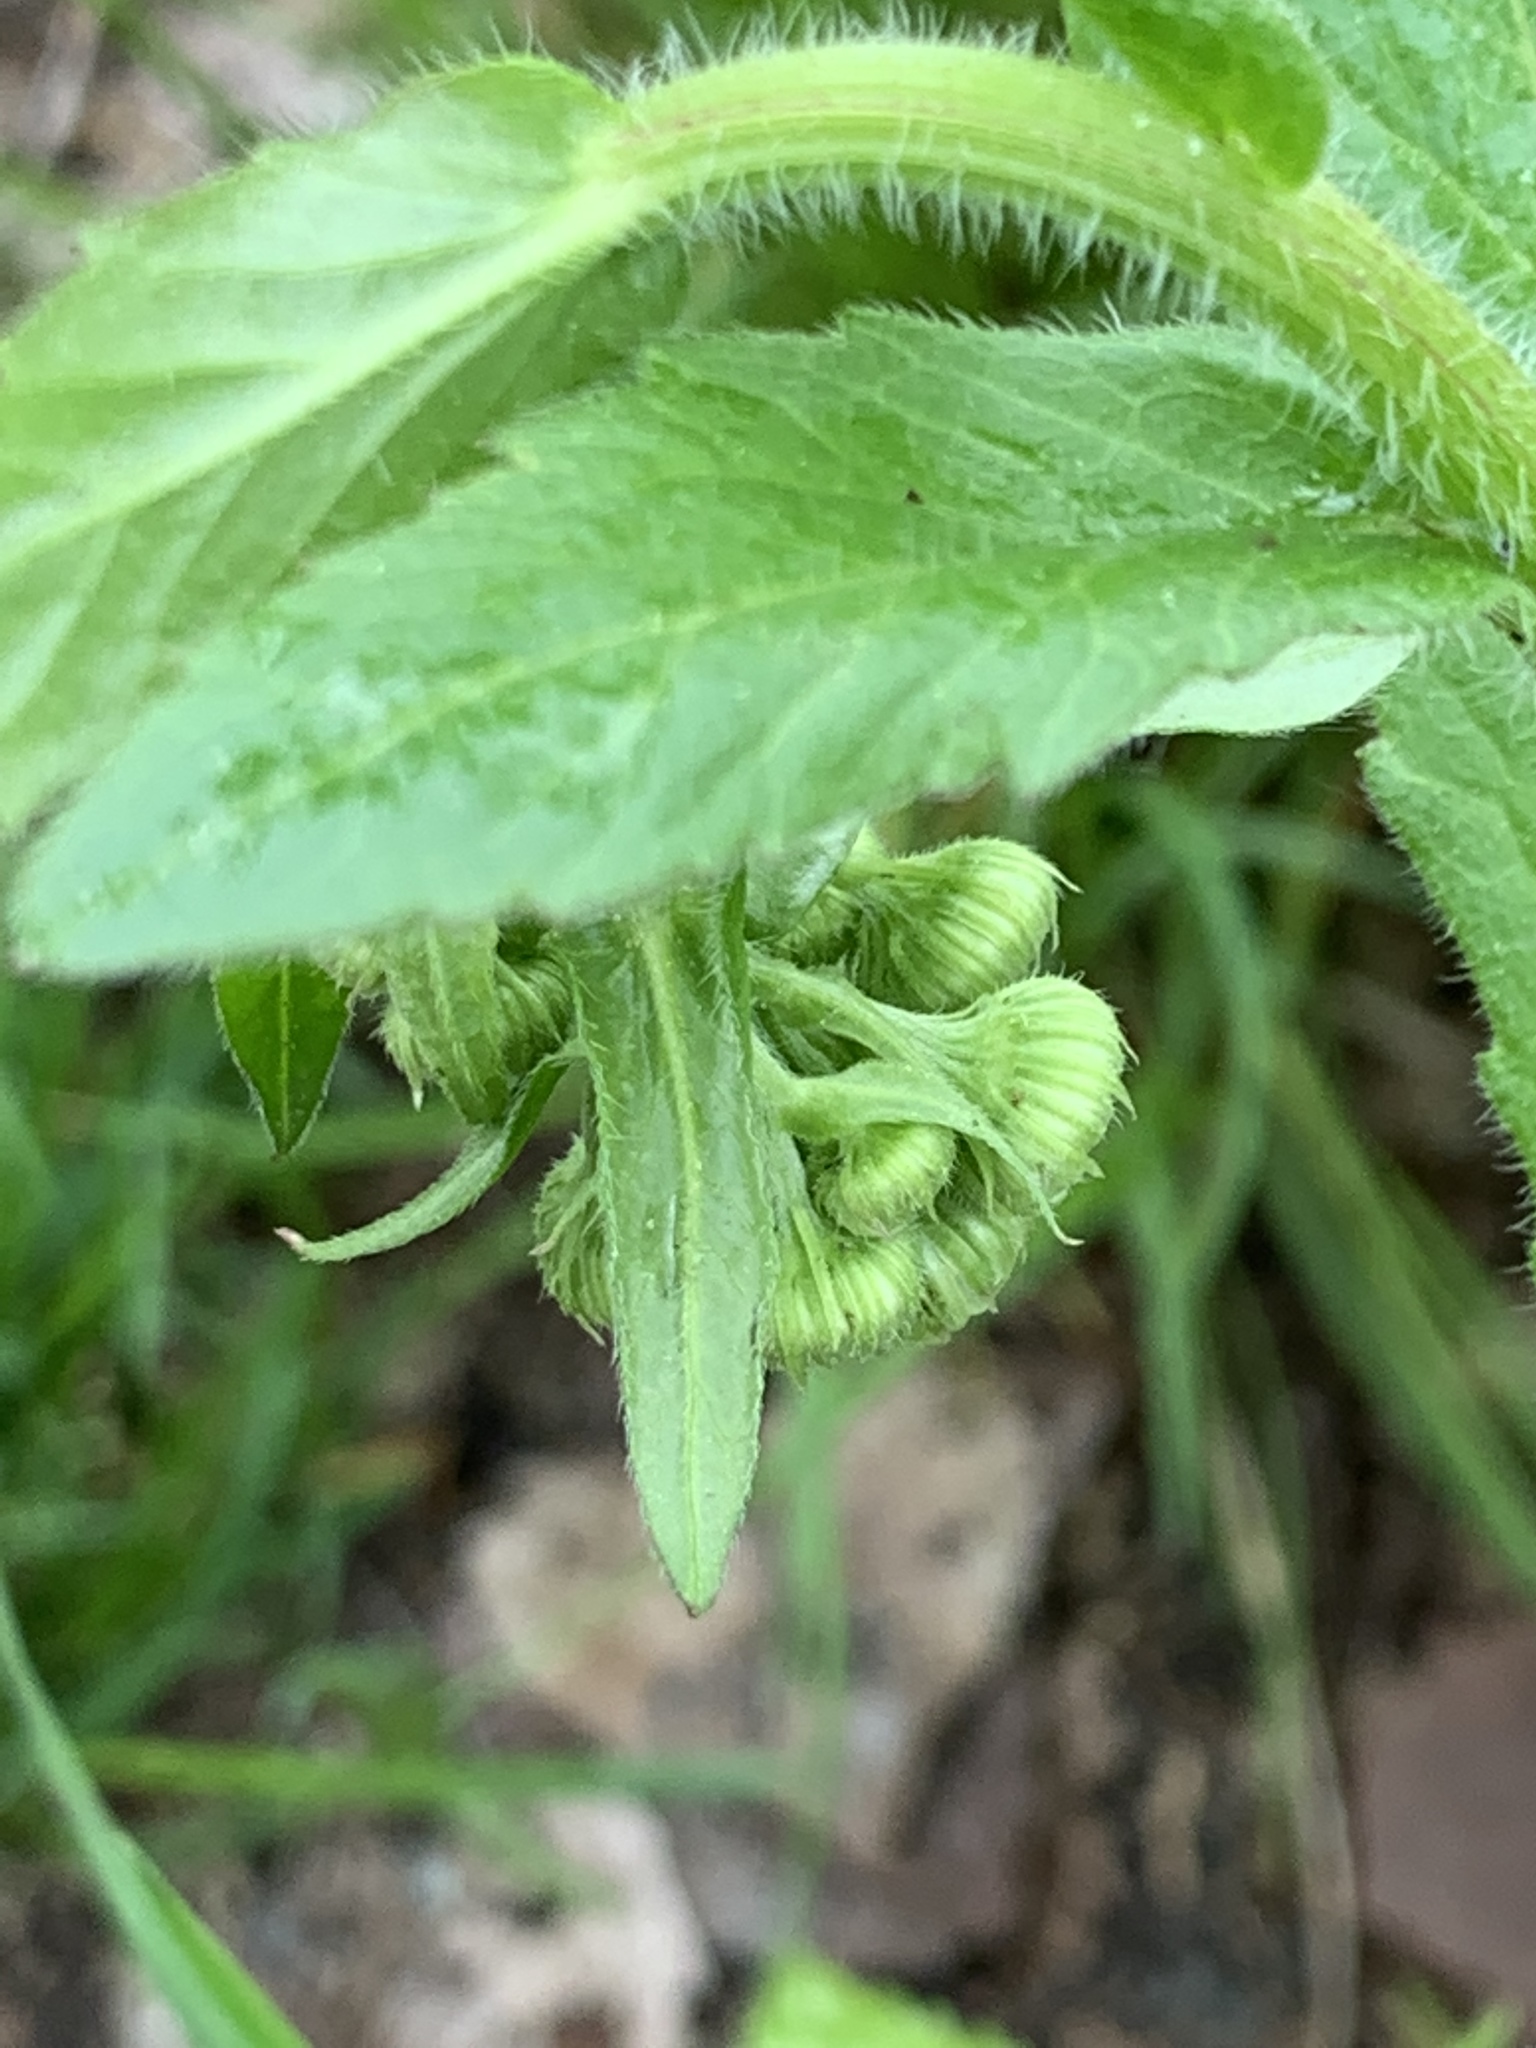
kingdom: Plantae
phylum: Tracheophyta
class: Magnoliopsida
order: Asterales
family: Asteraceae
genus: Erigeron
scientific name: Erigeron philadelphicus
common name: Robin's-plantain
